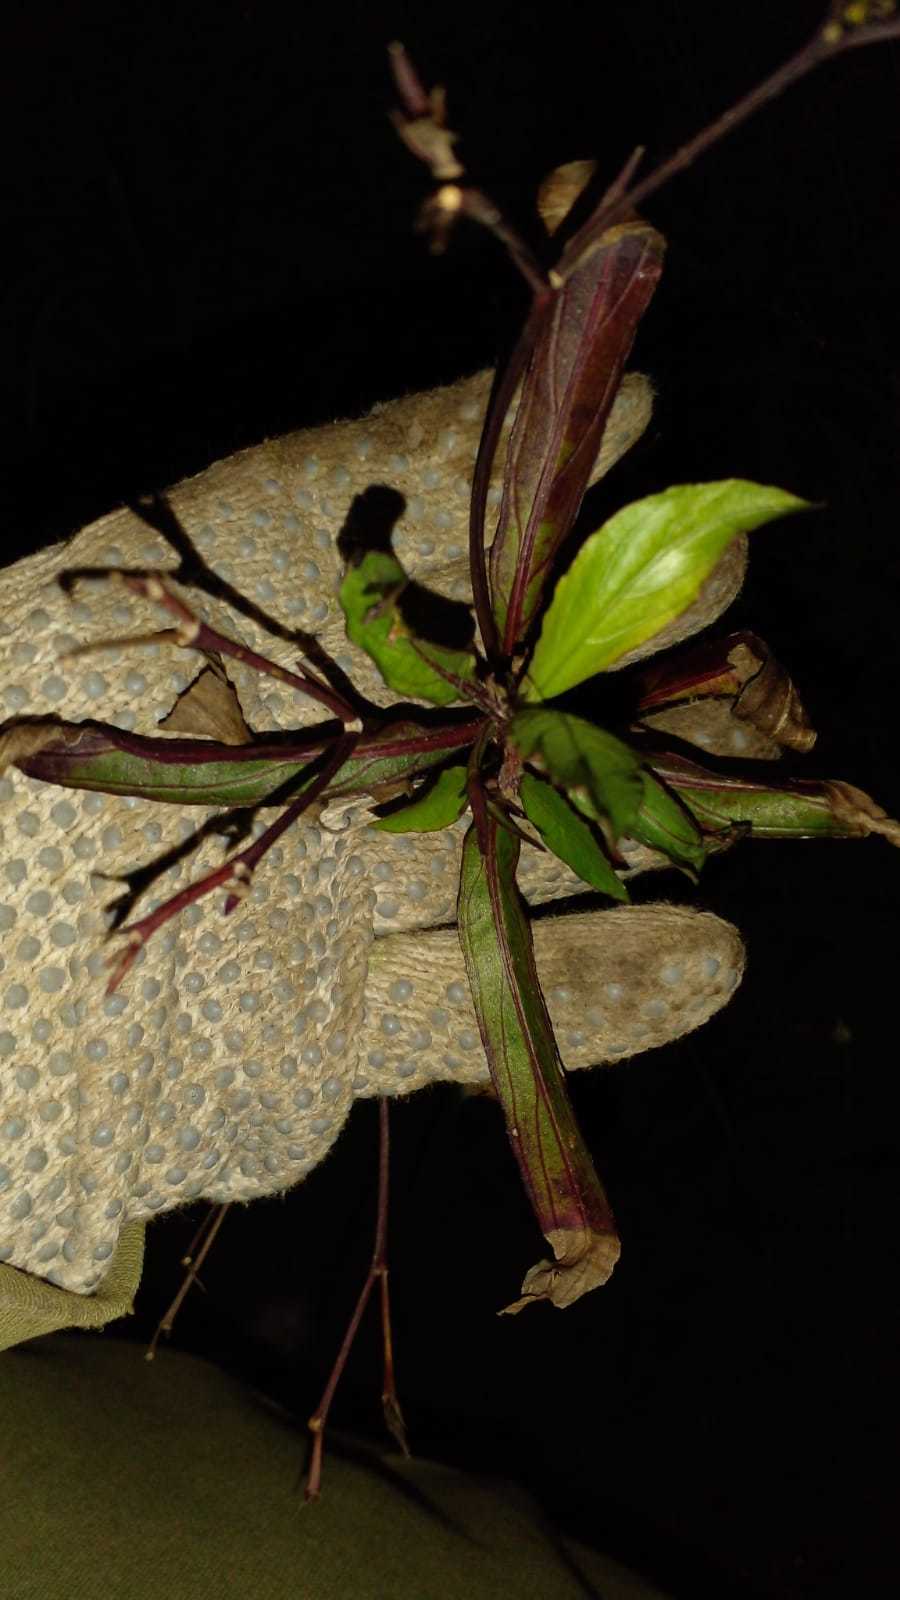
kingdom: Plantae
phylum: Tracheophyta
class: Magnoliopsida
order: Lamiales
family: Acanthaceae
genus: Ruellia
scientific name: Ruellia simplex
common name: Softseed wild petunia
